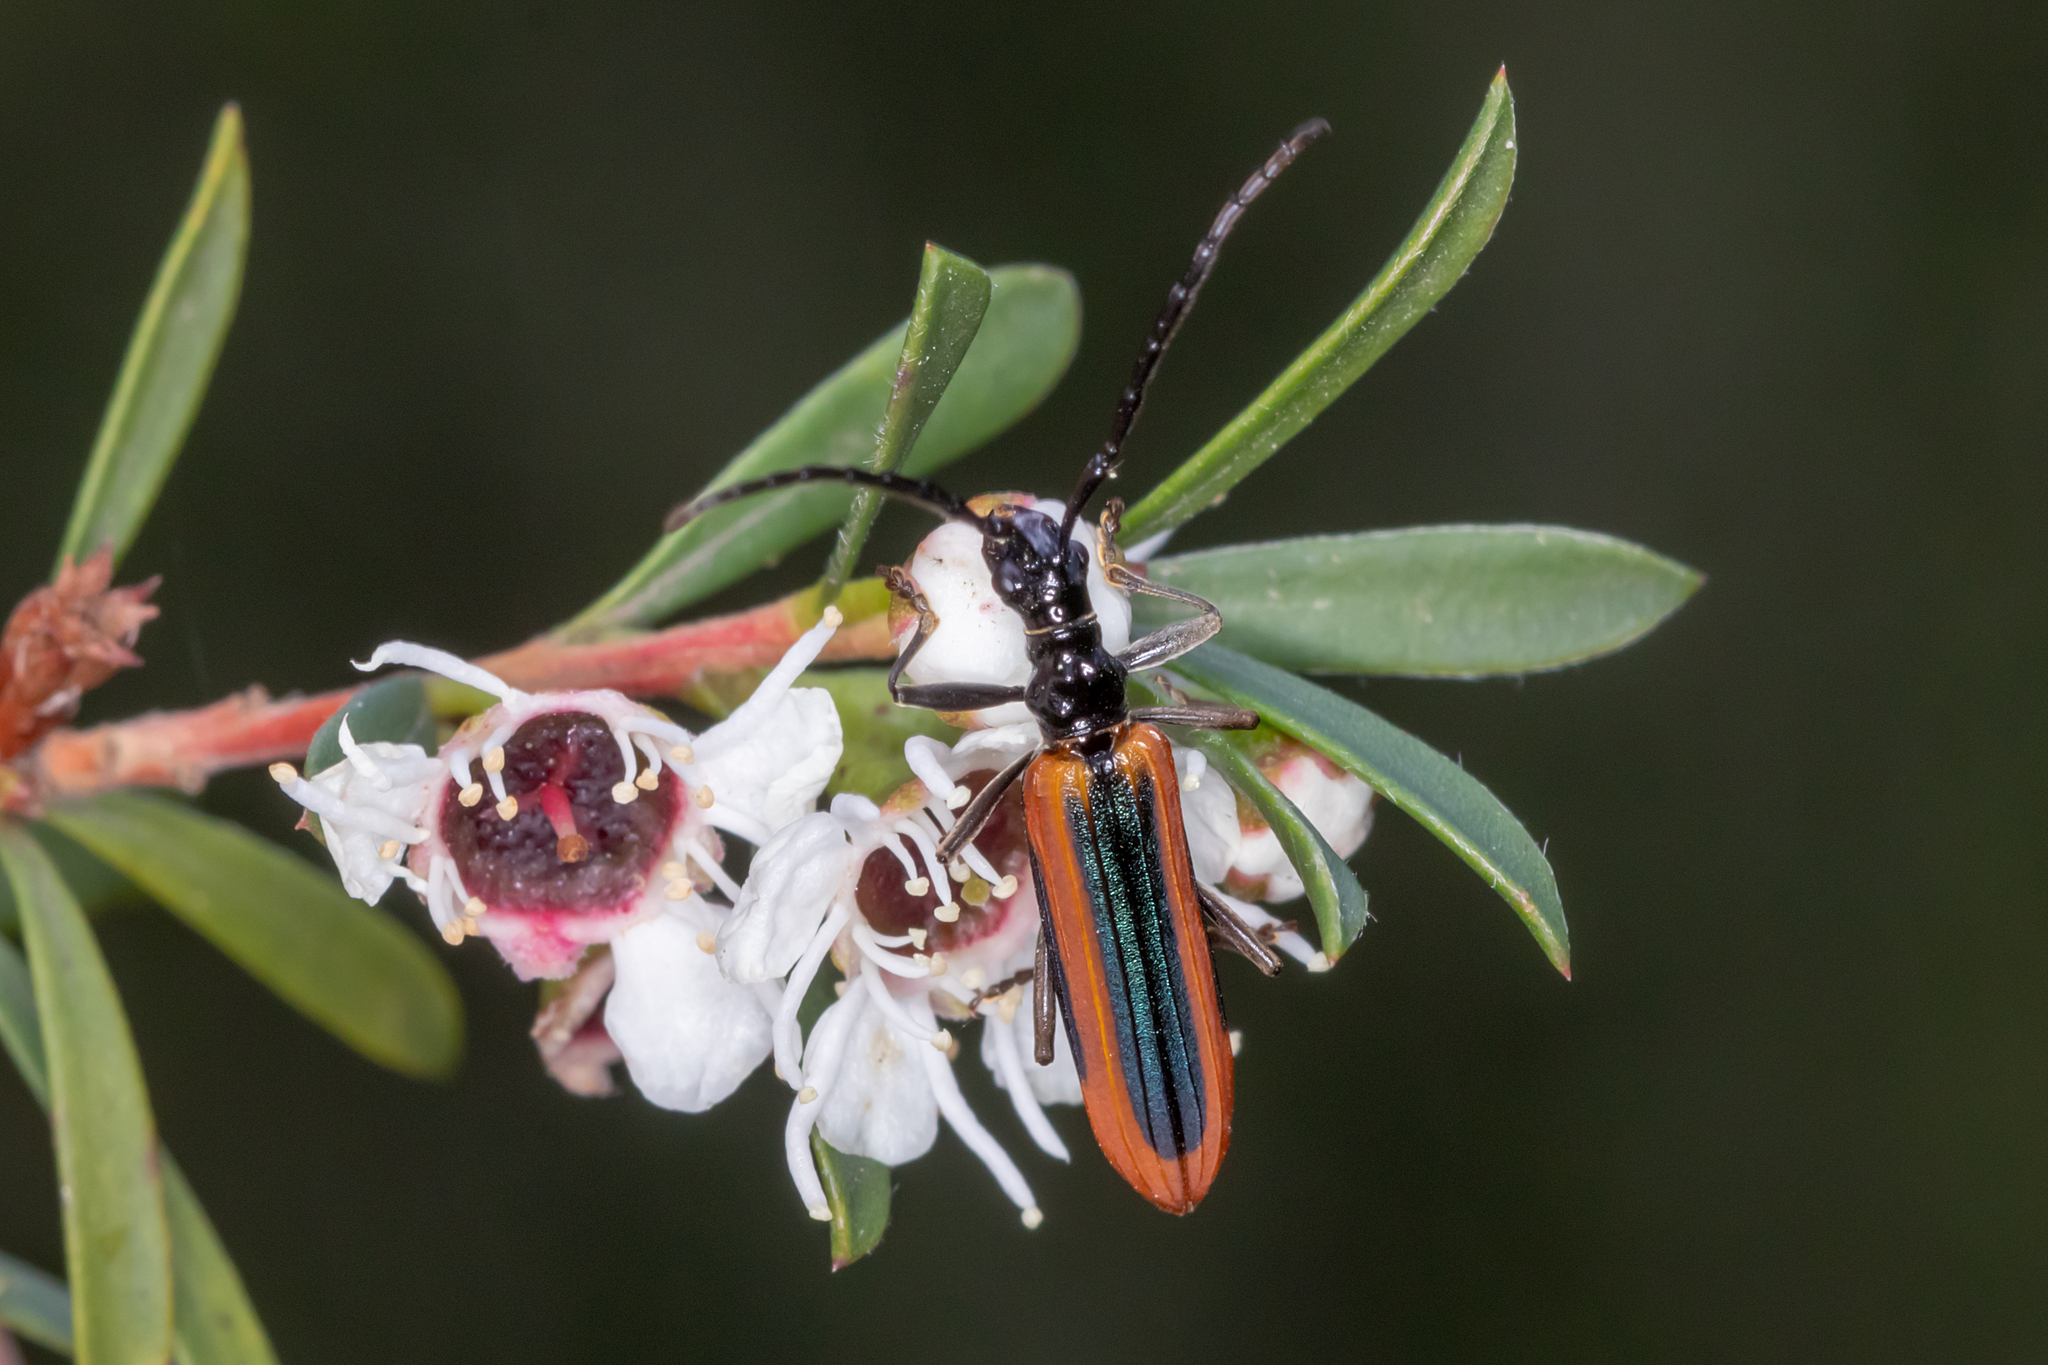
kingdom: Animalia
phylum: Arthropoda
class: Insecta
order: Coleoptera
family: Cerambycidae
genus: Stenoderus
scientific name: Stenoderus suturalis
